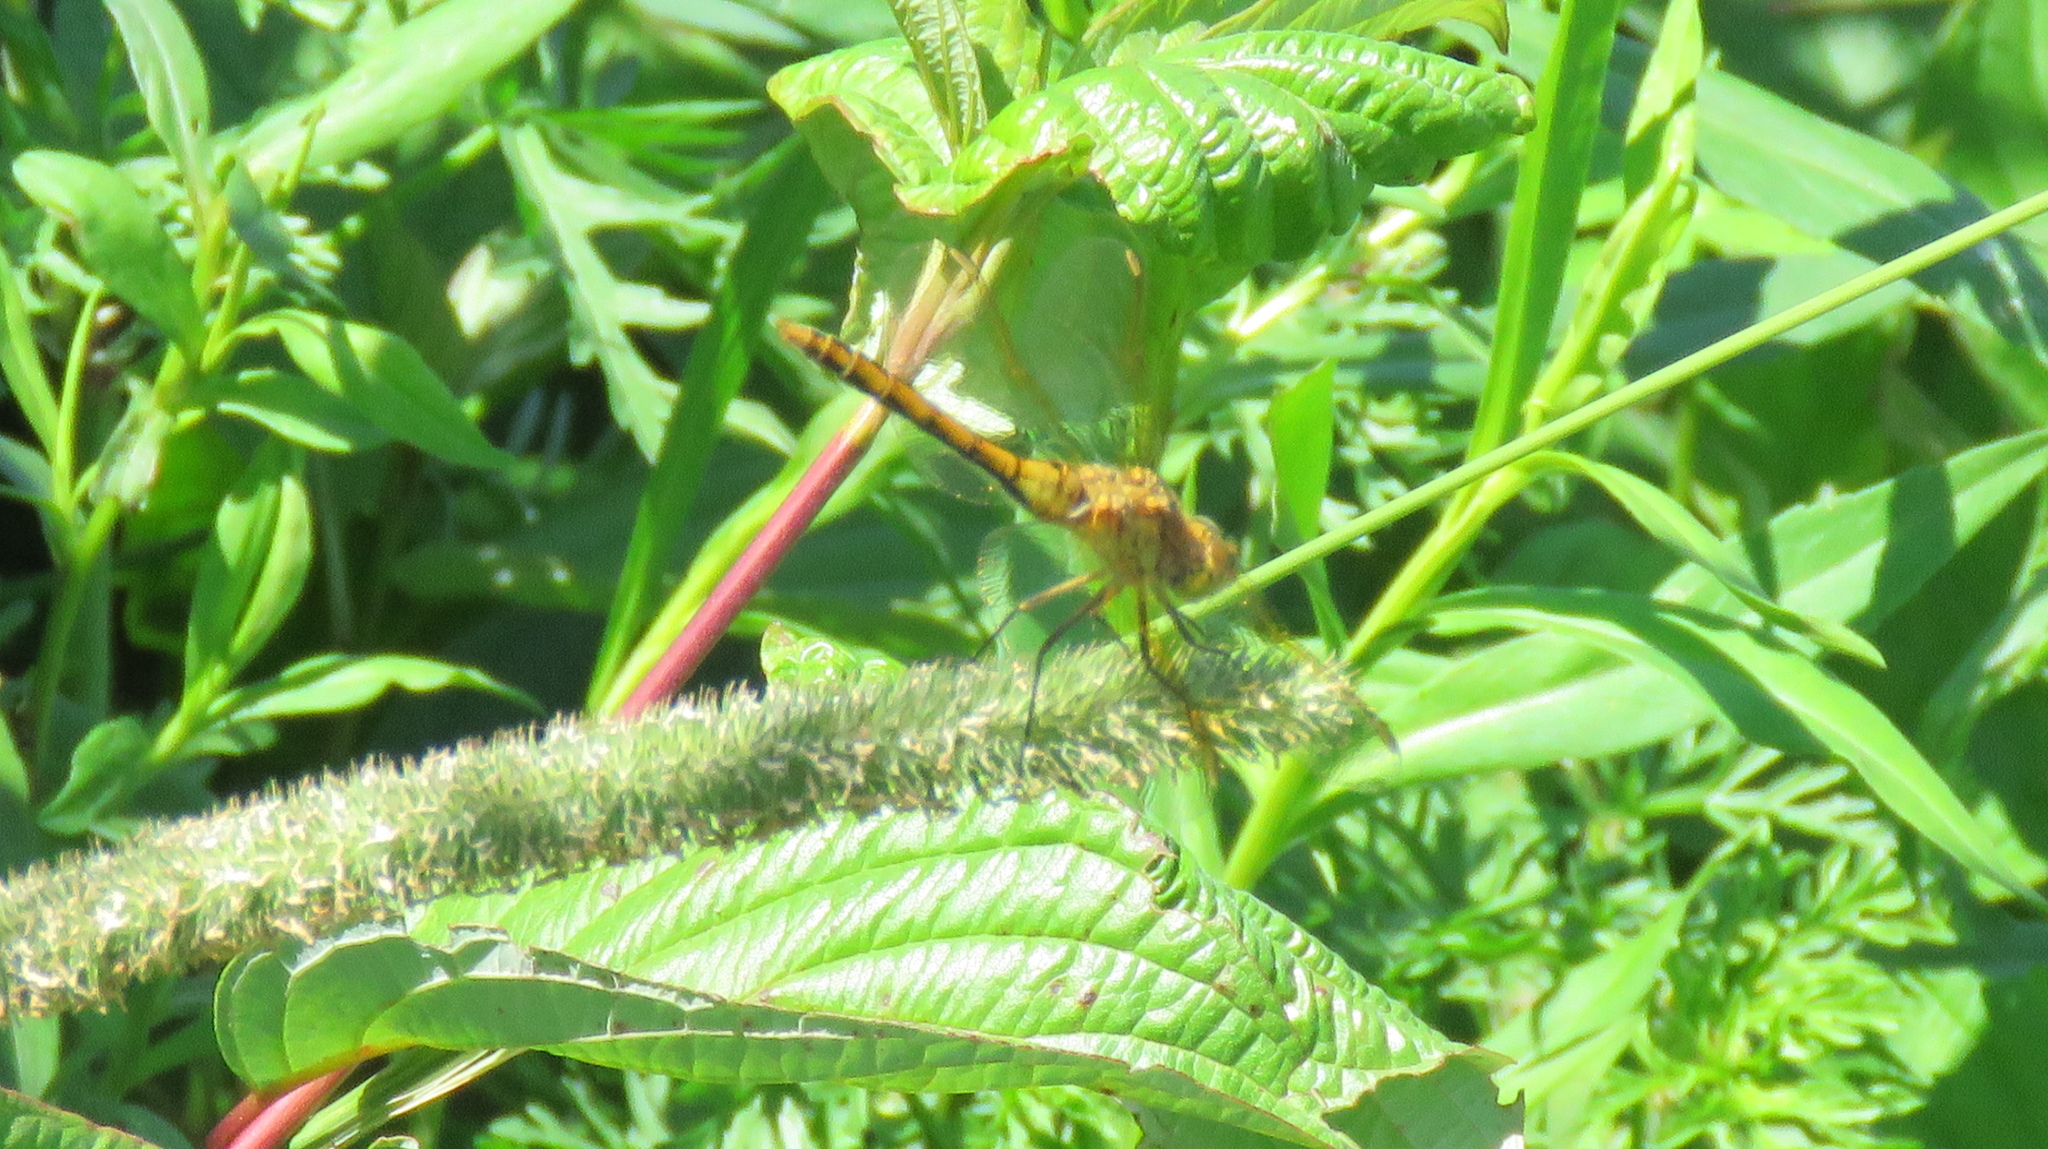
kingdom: Animalia
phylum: Arthropoda
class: Insecta
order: Odonata
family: Libellulidae
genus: Sympetrum
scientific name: Sympetrum costiferum
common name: Saffron-winged meadowhawk
